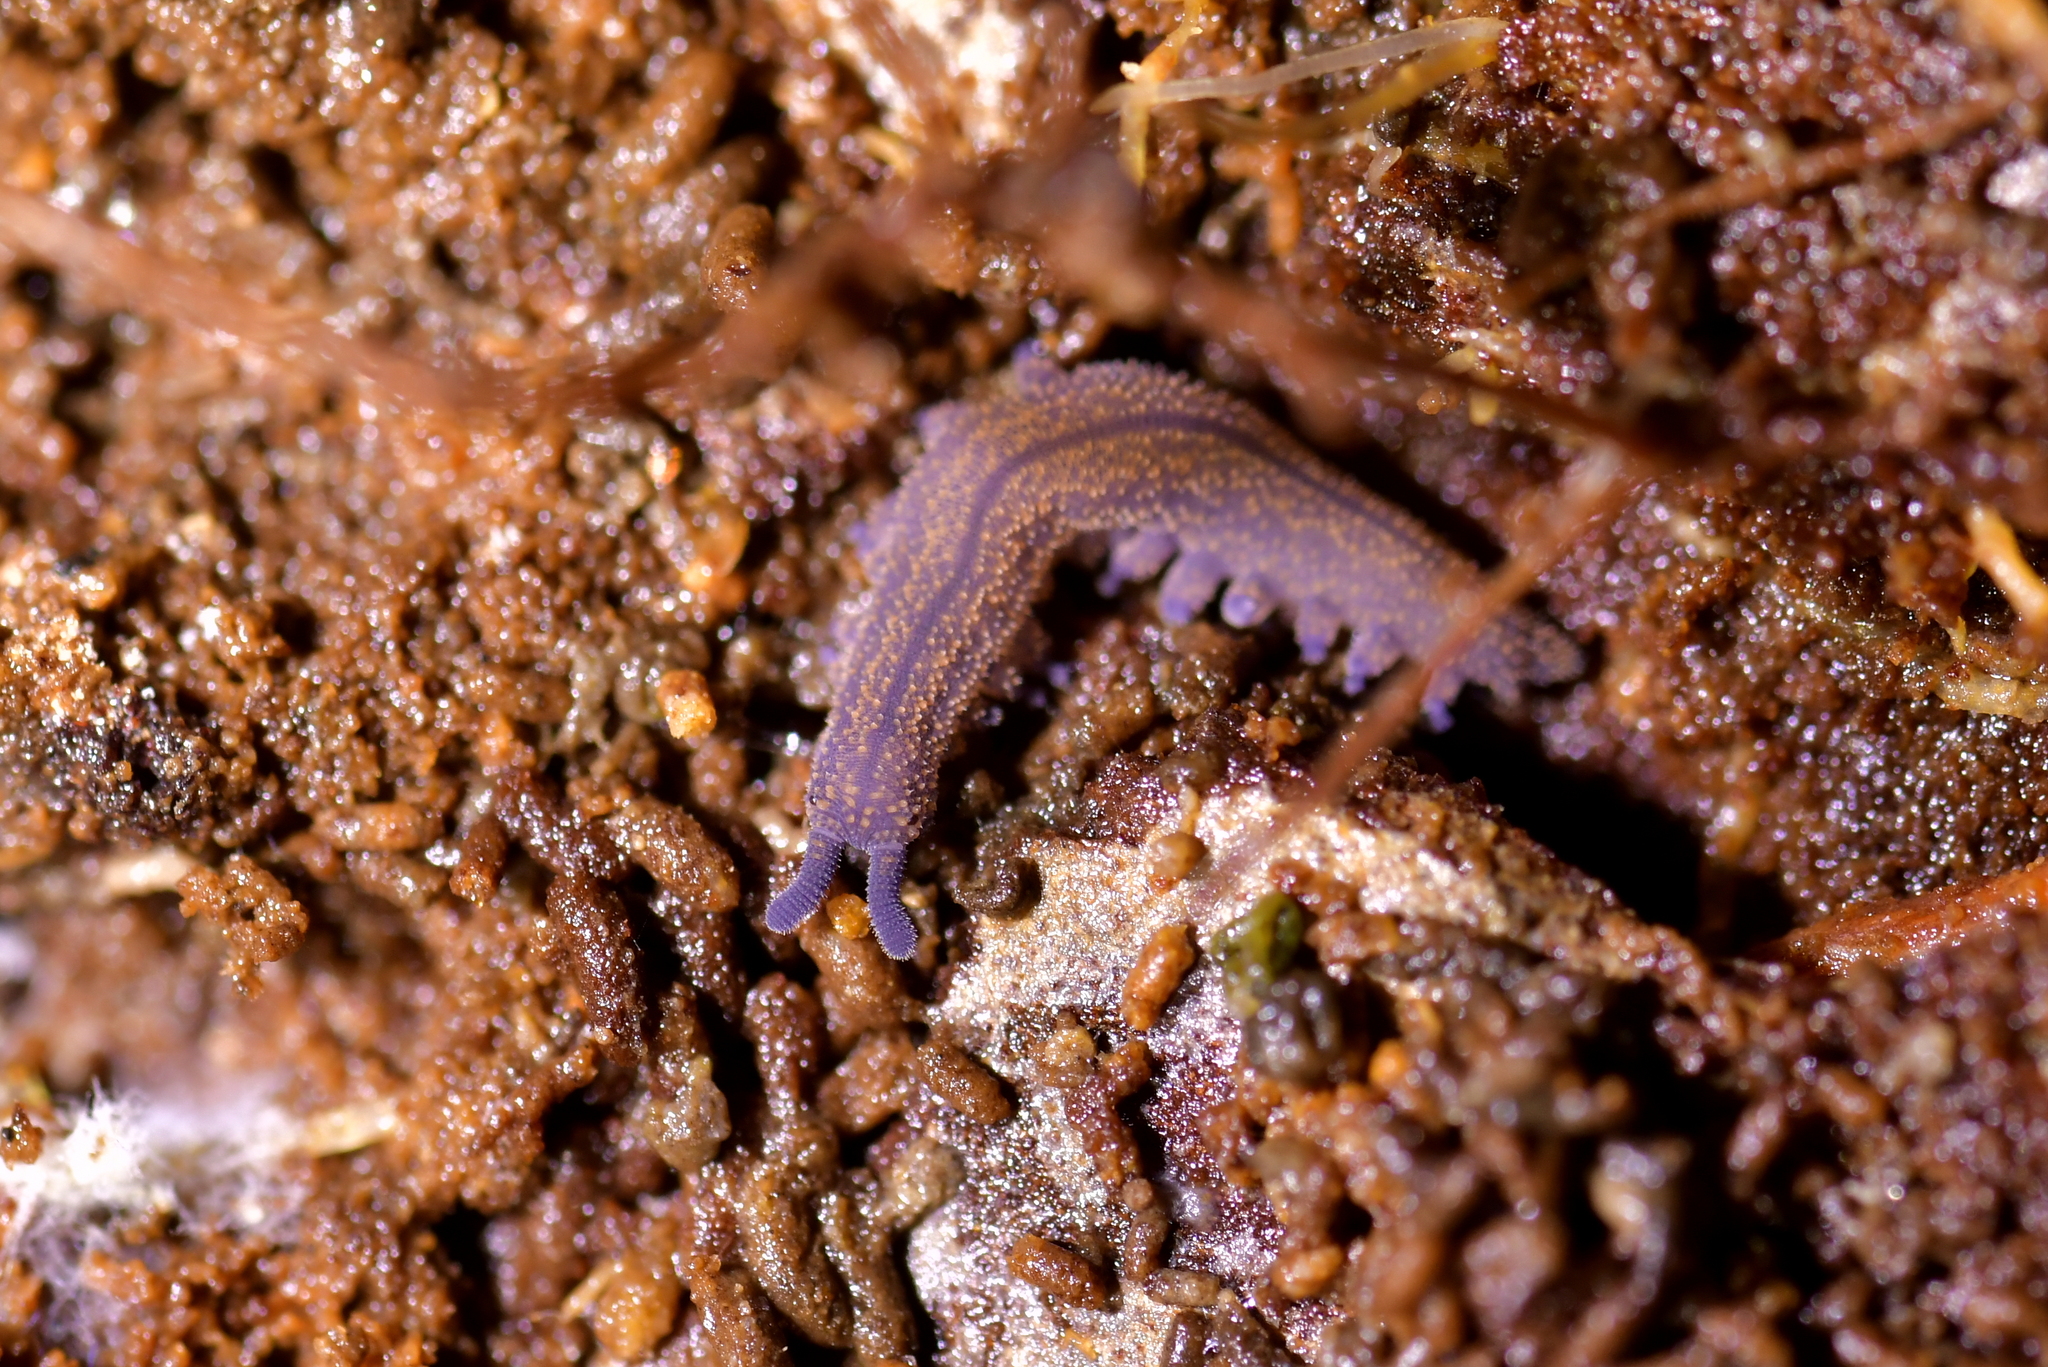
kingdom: Animalia
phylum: Onychophora
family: Peripatopsidae
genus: Peripatoides
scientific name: Peripatoides novaezealandiae
